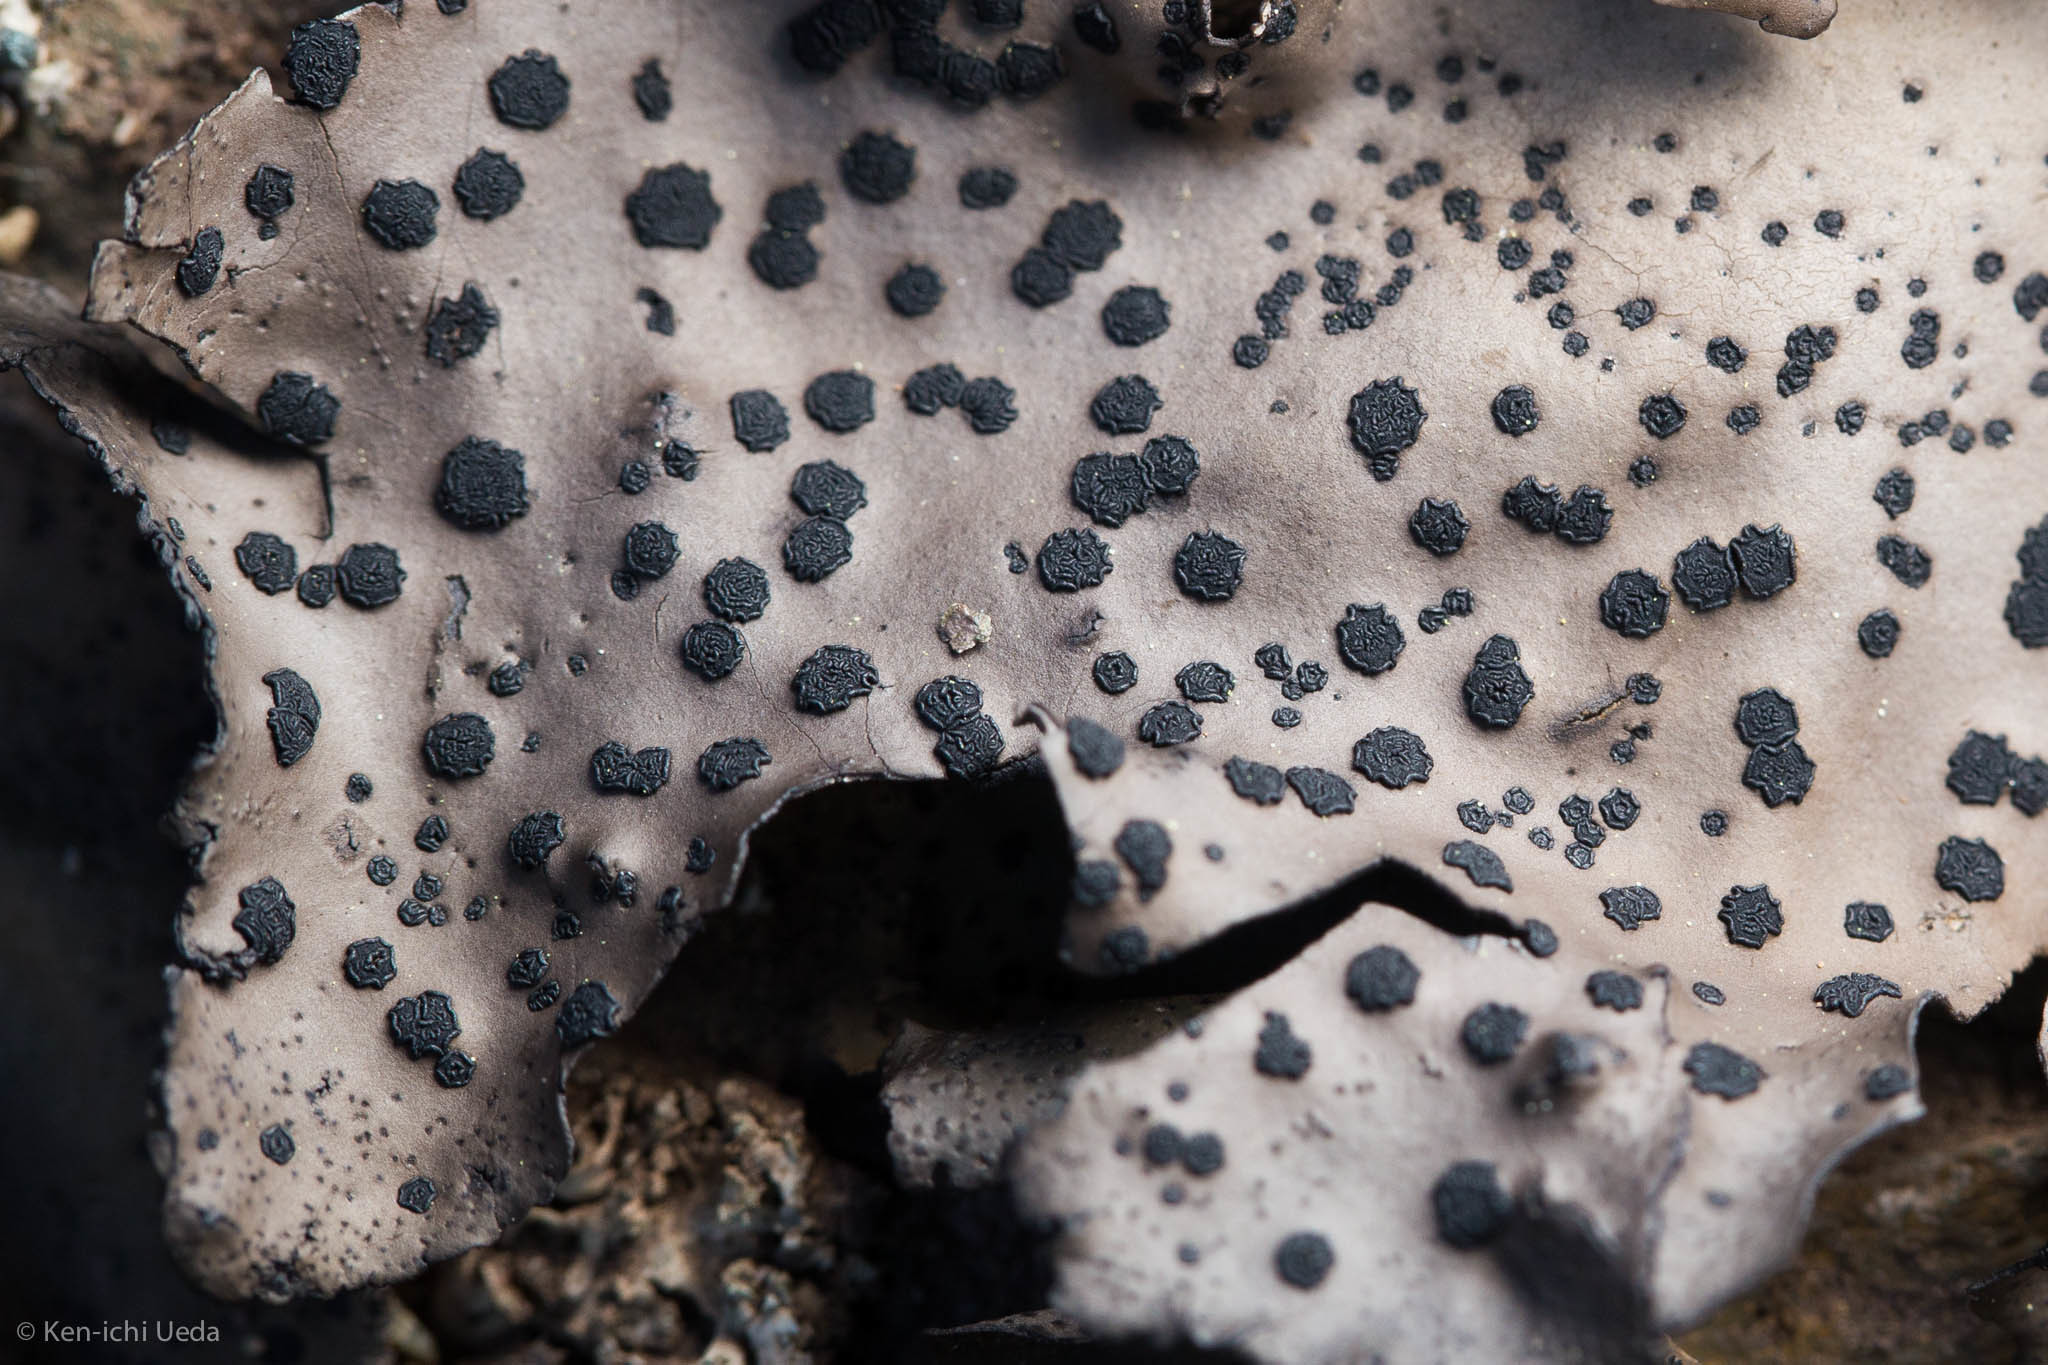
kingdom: Fungi
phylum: Ascomycota
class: Lecanoromycetes
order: Umbilicariales
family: Umbilicariaceae
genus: Umbilicaria
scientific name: Umbilicaria phaea
